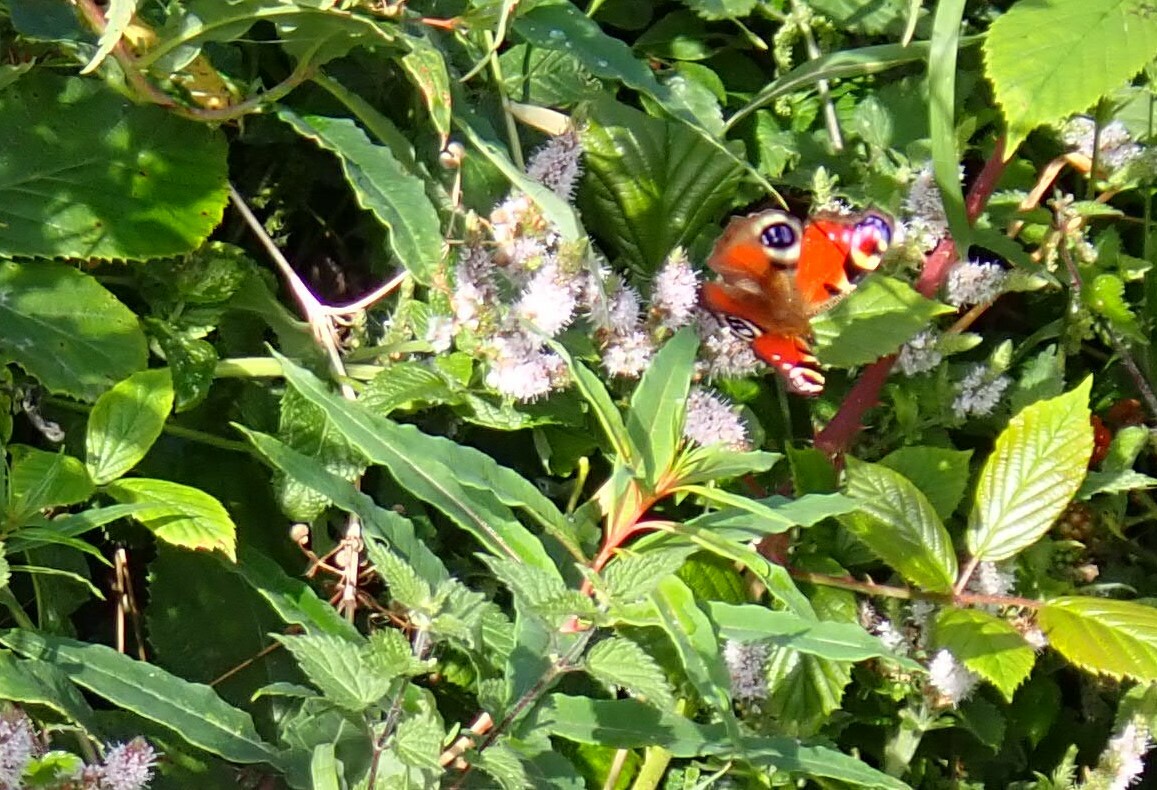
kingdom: Animalia
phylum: Arthropoda
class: Insecta
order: Lepidoptera
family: Nymphalidae
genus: Aglais
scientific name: Aglais io
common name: Peacock
